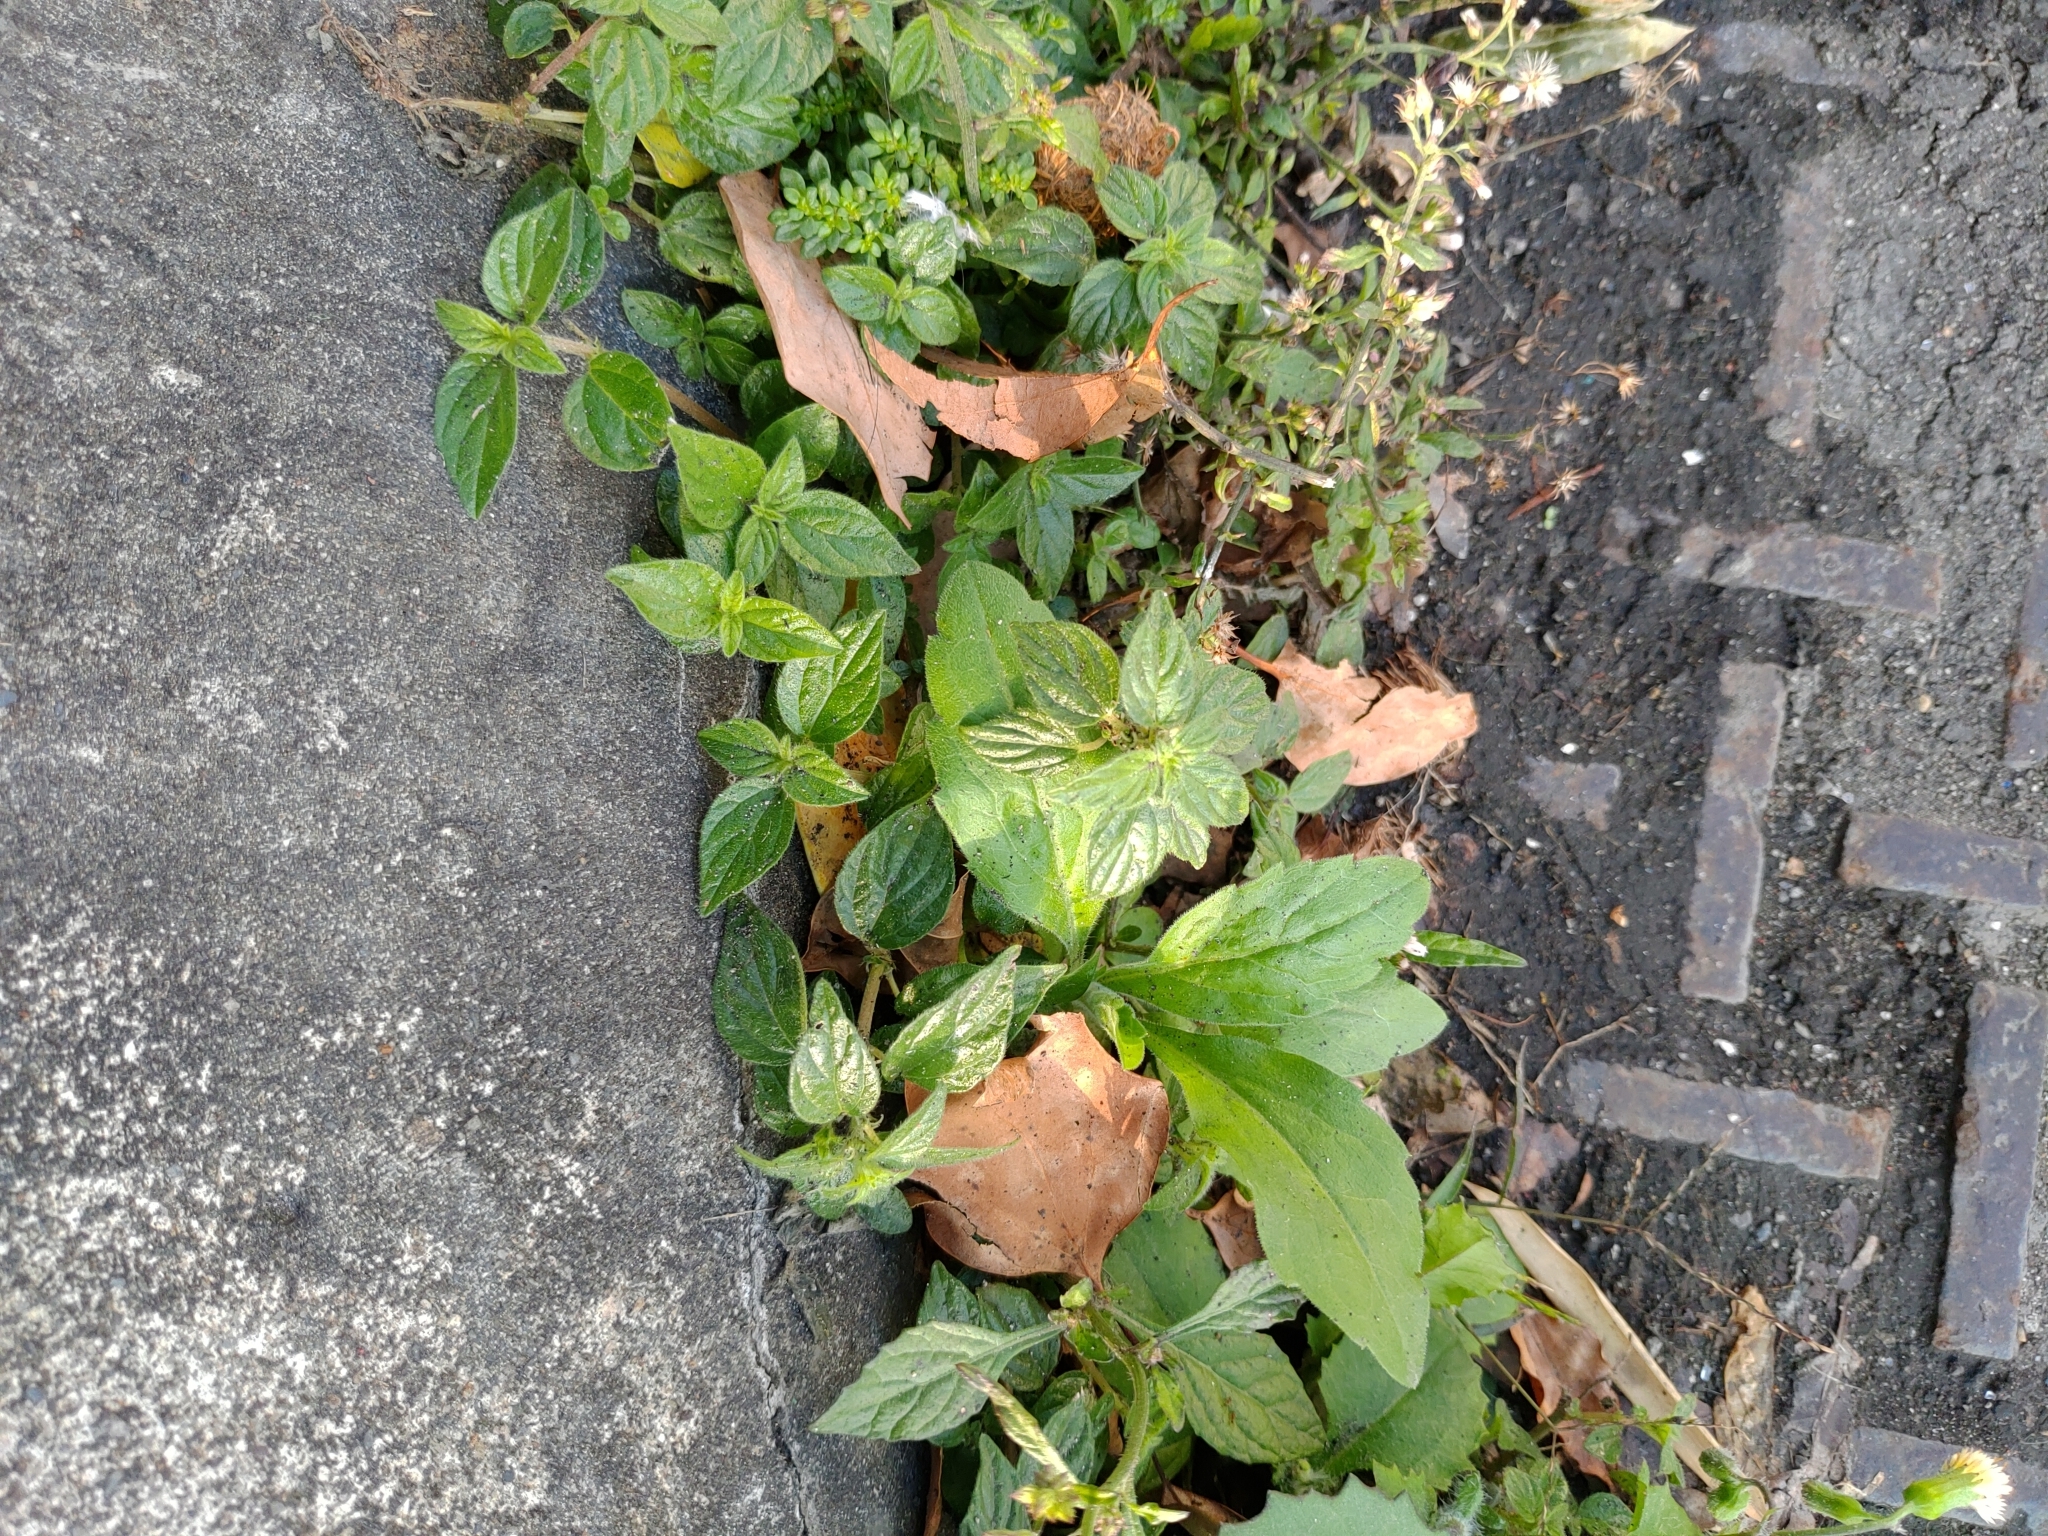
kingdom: Plantae
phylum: Tracheophyta
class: Magnoliopsida
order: Rosales
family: Urticaceae
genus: Pouzolzia
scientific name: Pouzolzia zeylanica
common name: Graceful pouzolzsbush
